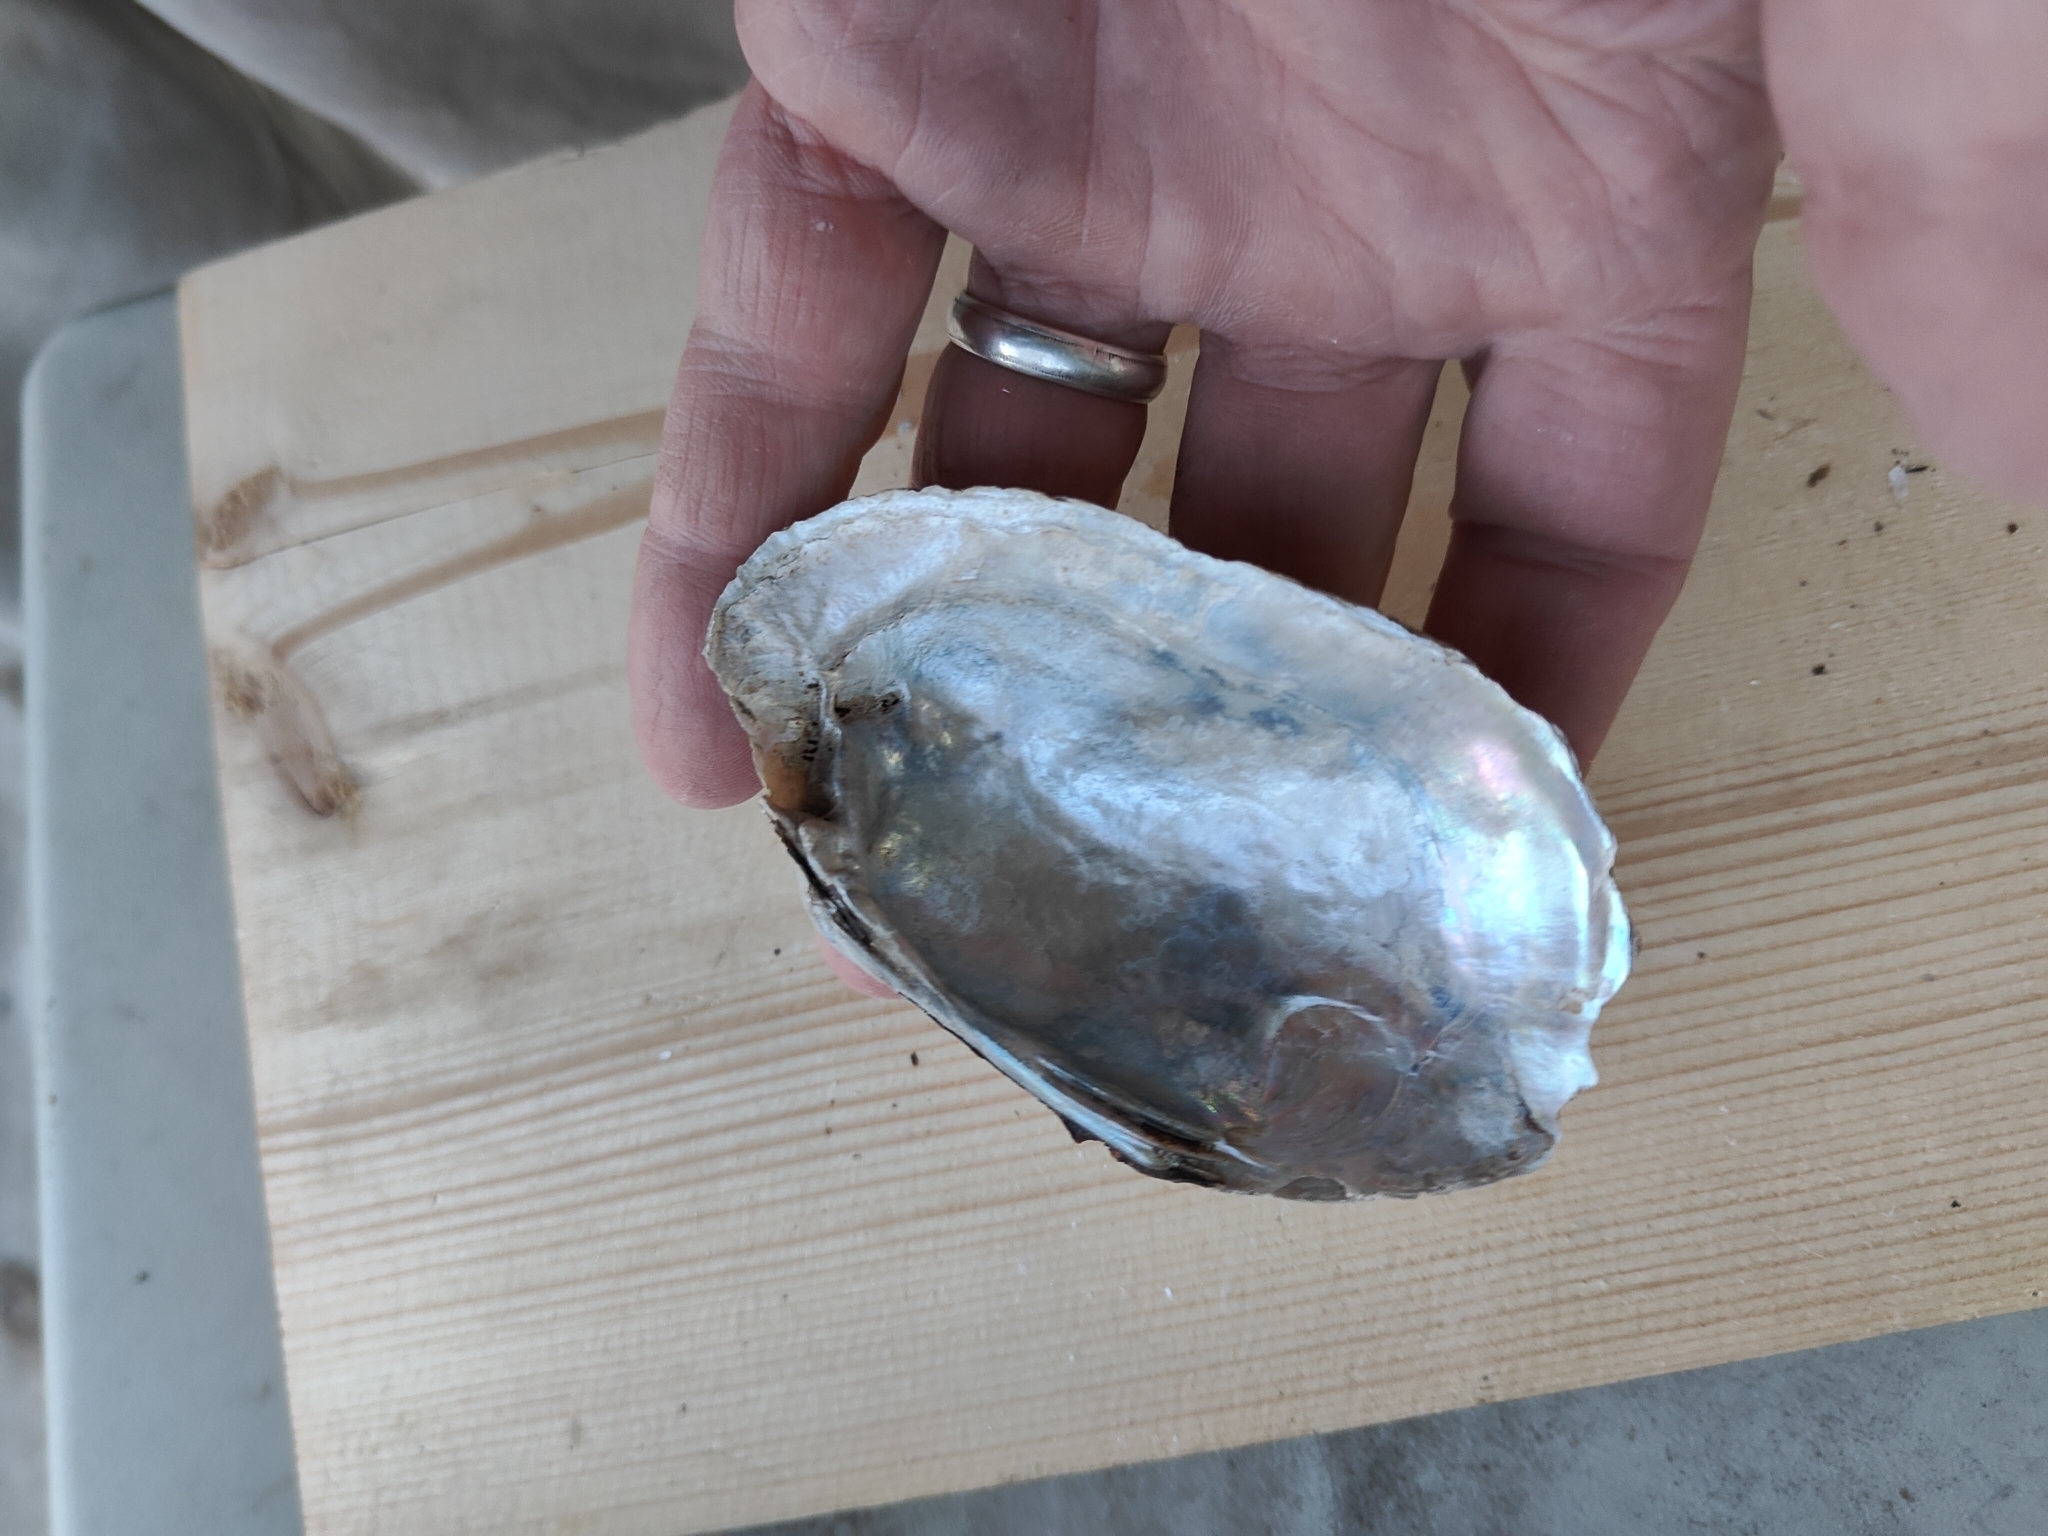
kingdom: Animalia
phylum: Mollusca
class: Bivalvia
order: Unionida
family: Unionidae
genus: Lampsilis
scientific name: Lampsilis siliquoidea
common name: Fatmucket
